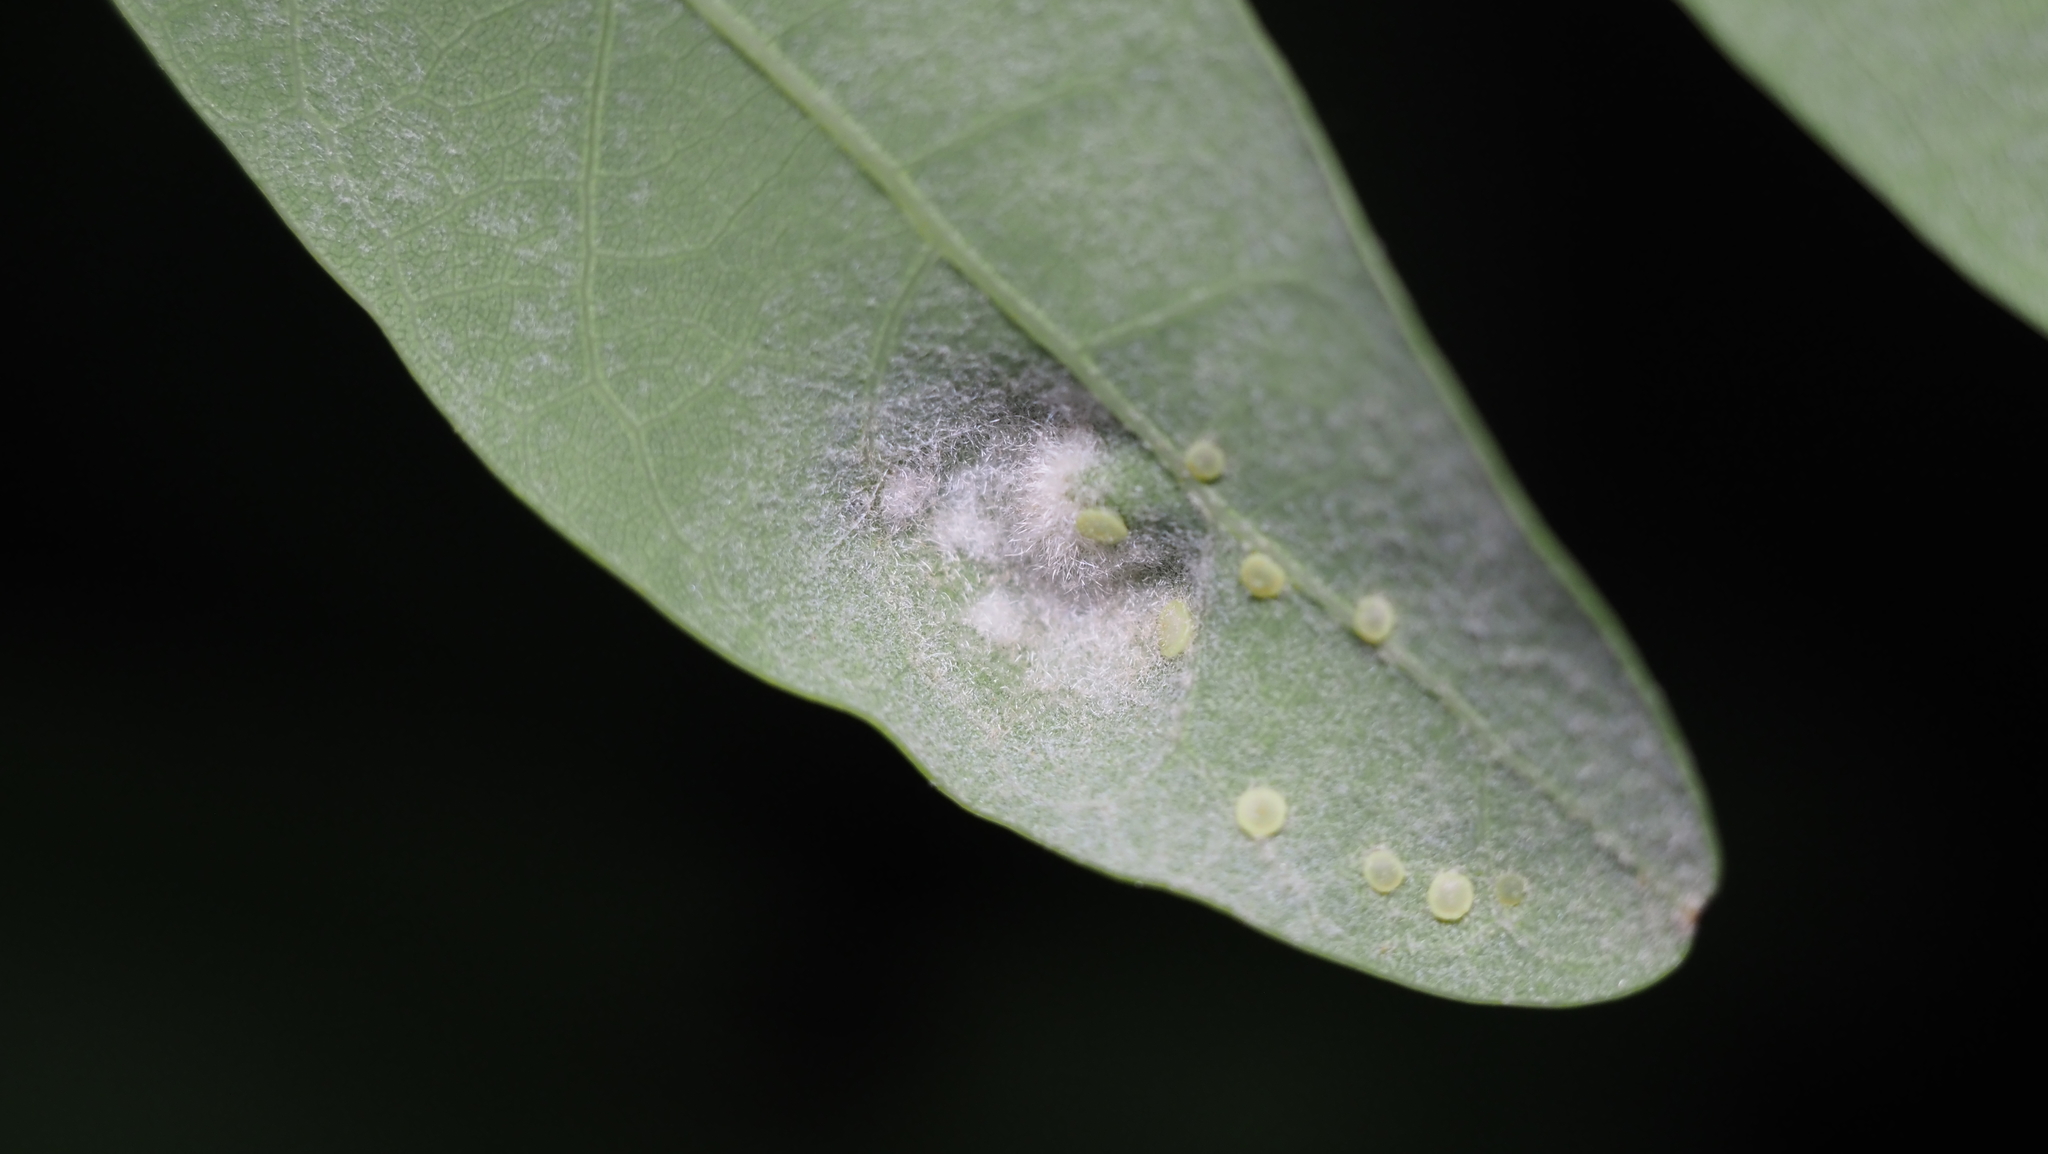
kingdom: Animalia
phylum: Arthropoda
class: Arachnida
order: Trombidiformes
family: Eriophyidae
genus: Aceria
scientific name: Aceria
